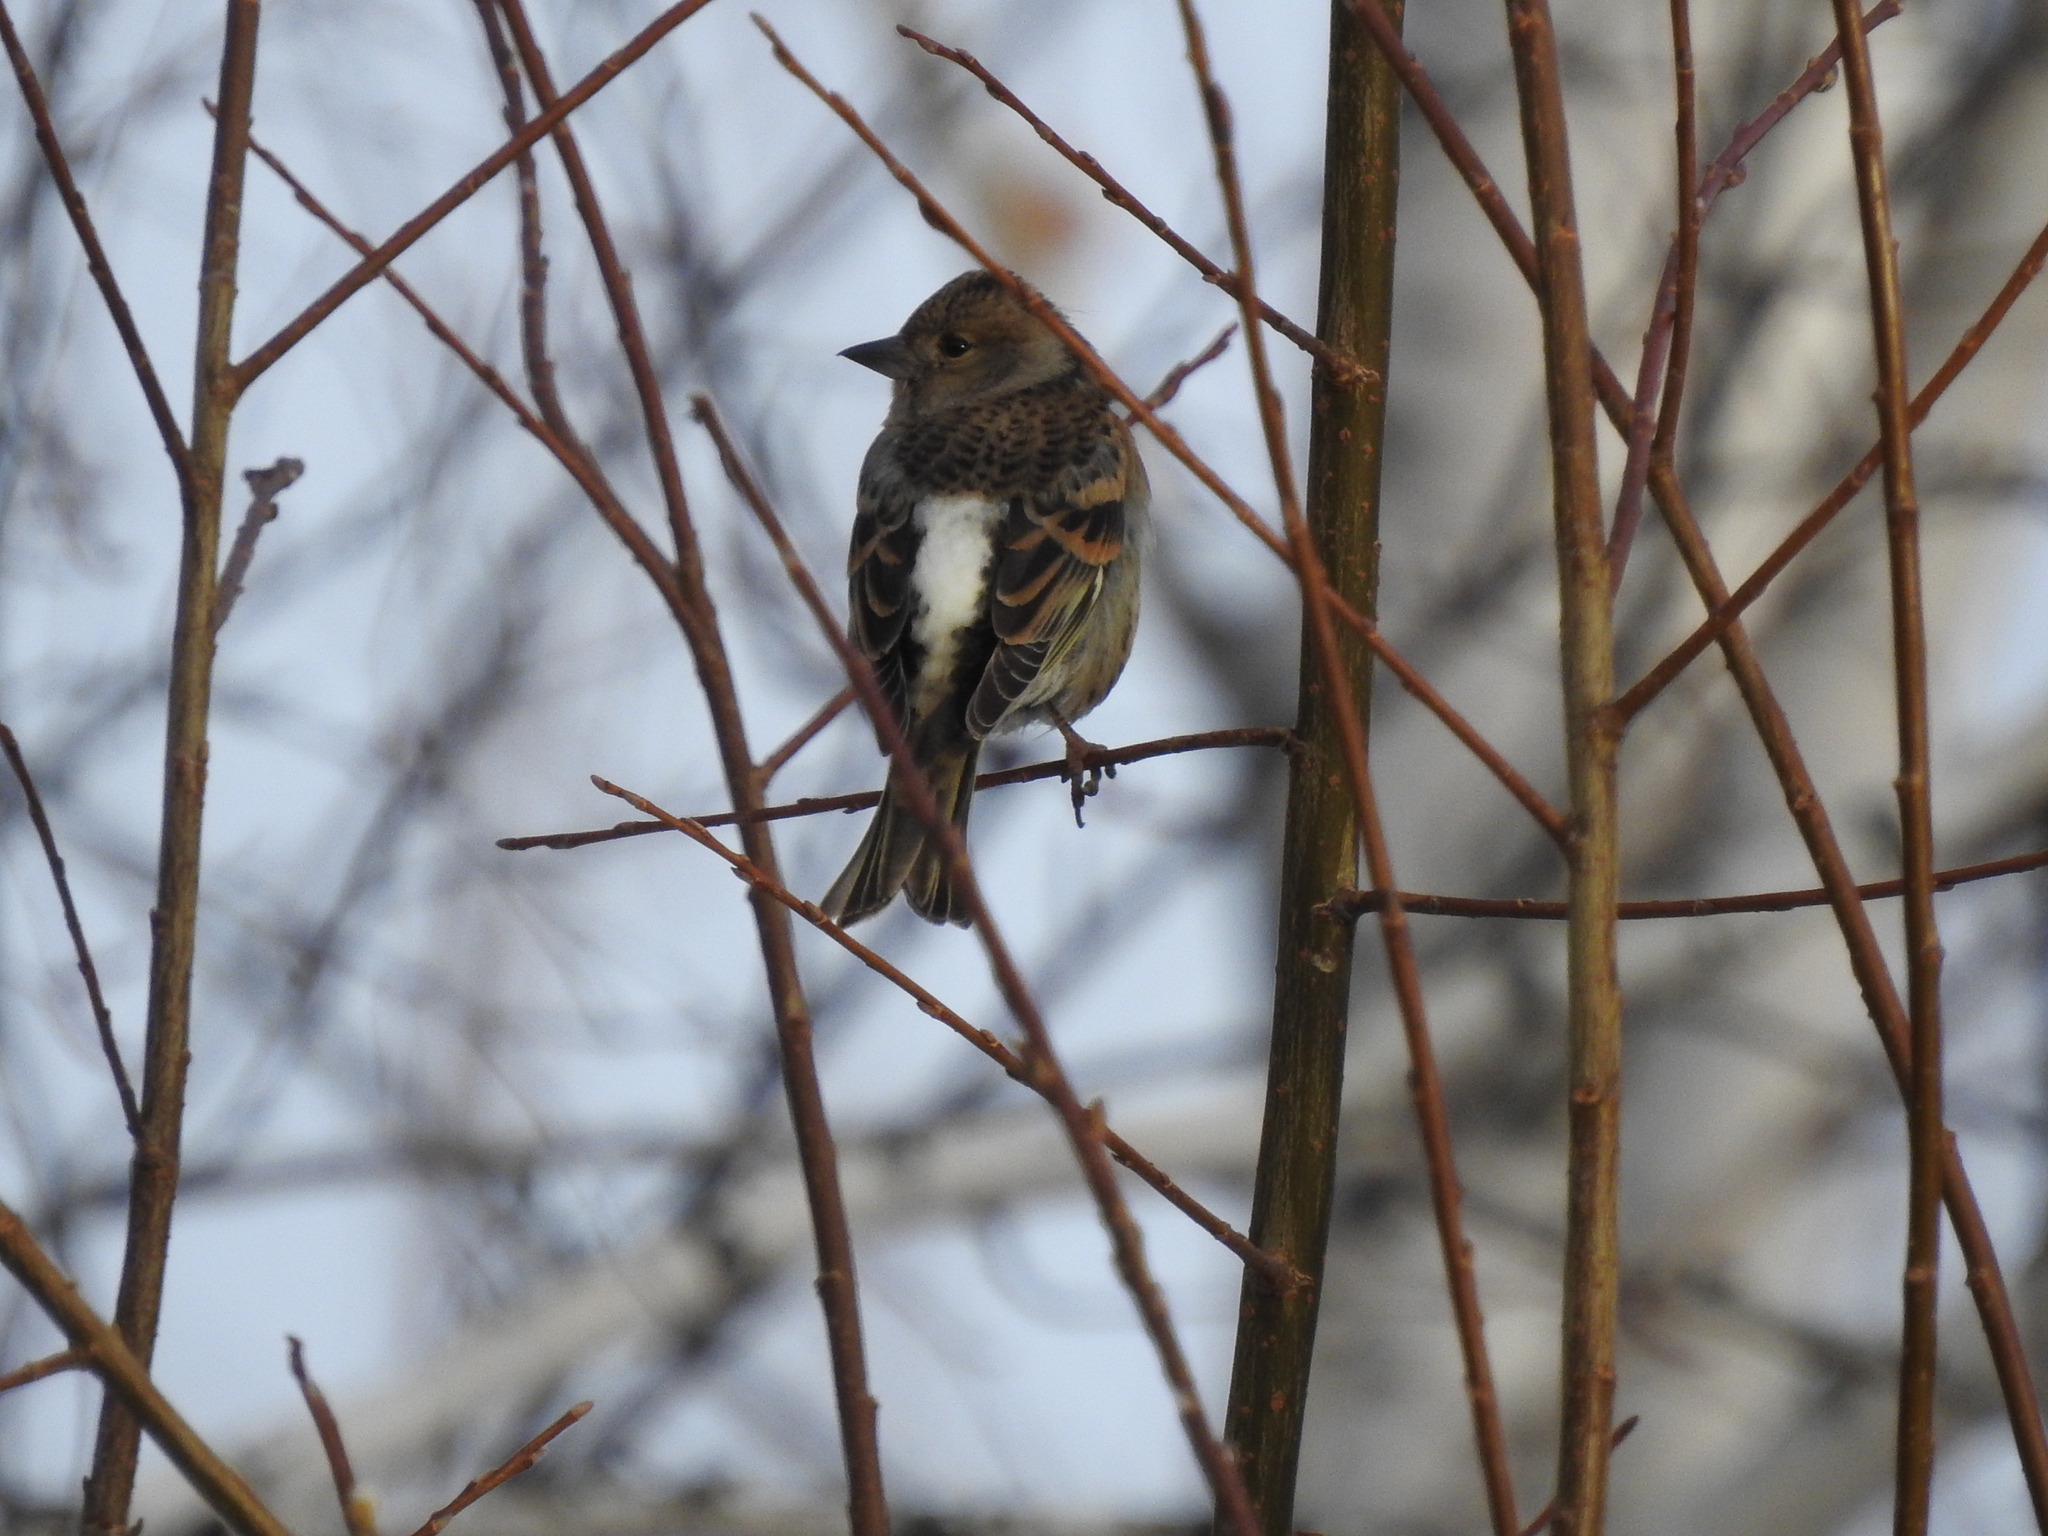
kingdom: Animalia
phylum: Chordata
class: Aves
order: Passeriformes
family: Fringillidae
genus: Fringilla
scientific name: Fringilla montifringilla
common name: Brambling
